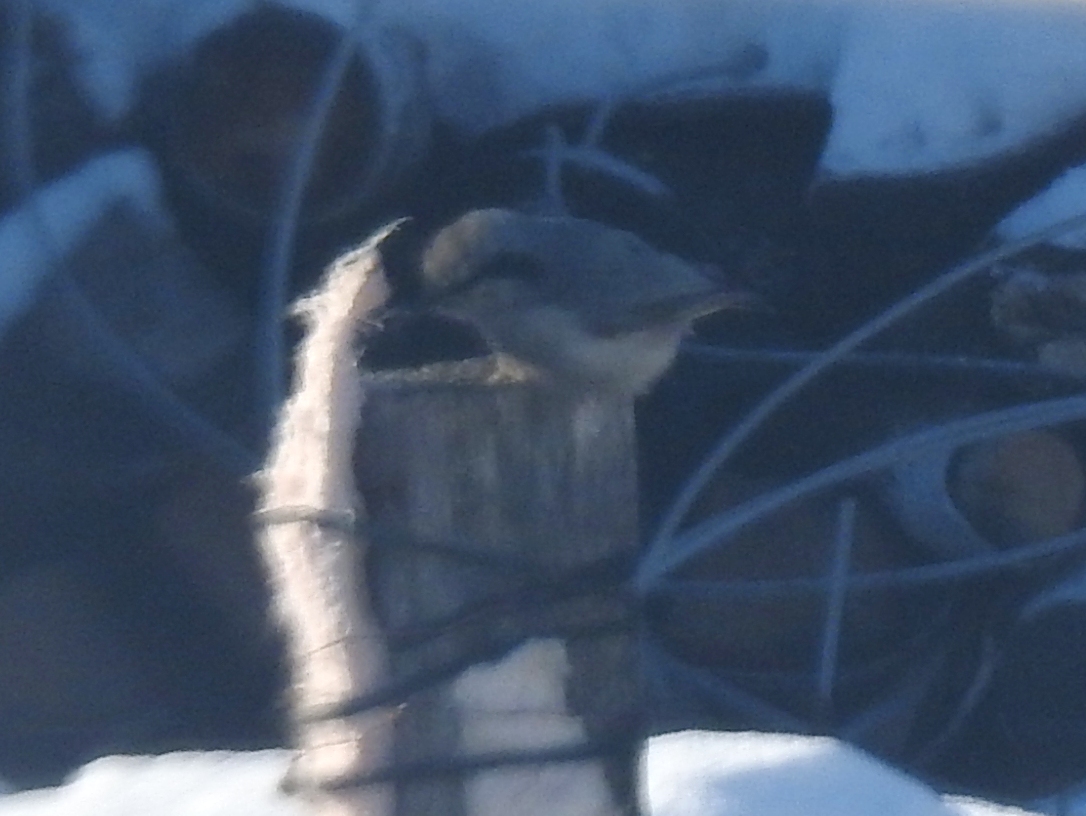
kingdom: Animalia
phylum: Chordata
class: Aves
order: Passeriformes
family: Sittidae
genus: Sitta
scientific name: Sitta europaea
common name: Eurasian nuthatch
